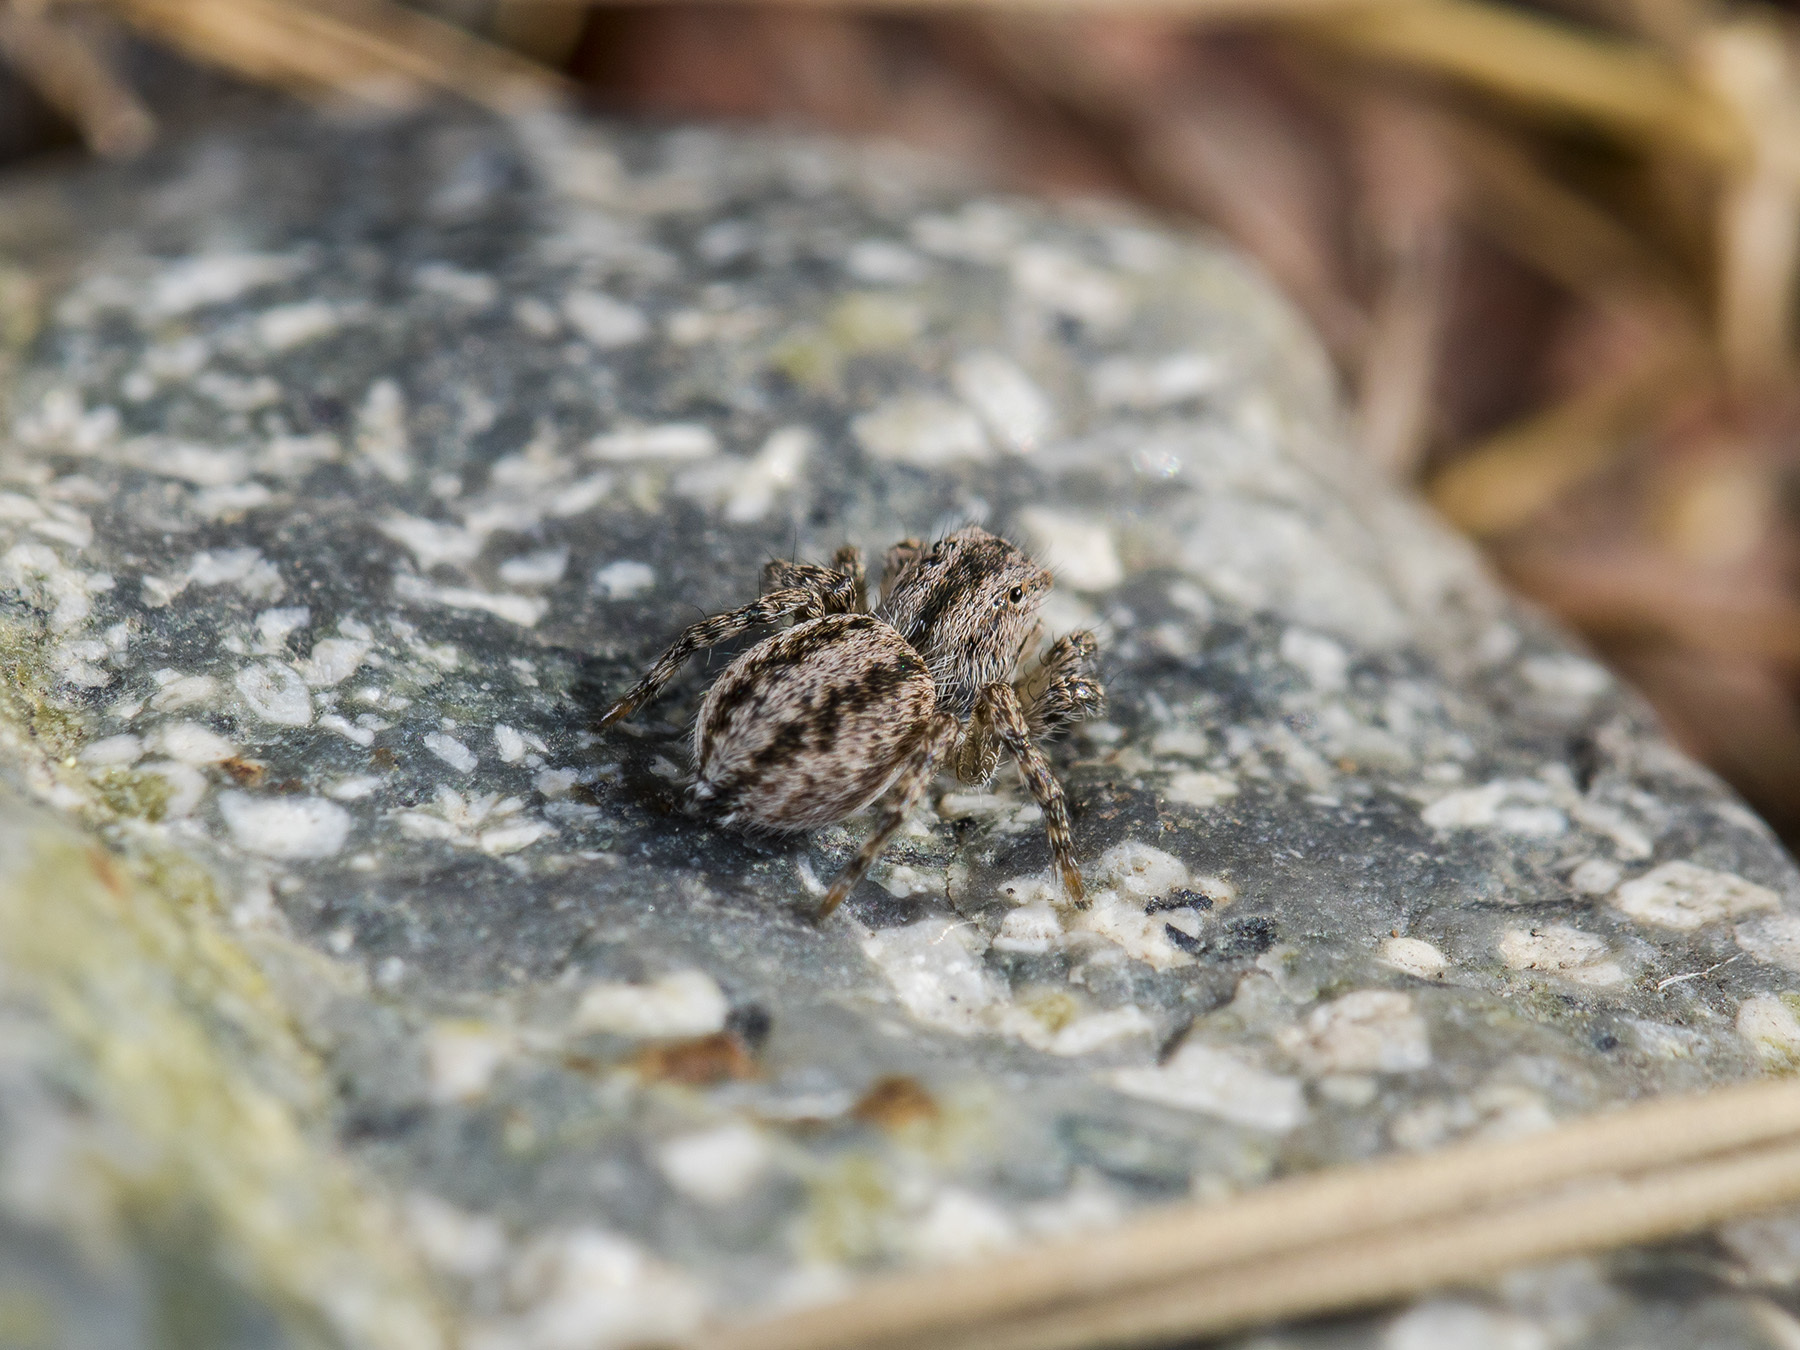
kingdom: Animalia
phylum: Arthropoda
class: Arachnida
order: Araneae
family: Salticidae
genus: Aelurillus
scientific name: Aelurillus v-insignitus
